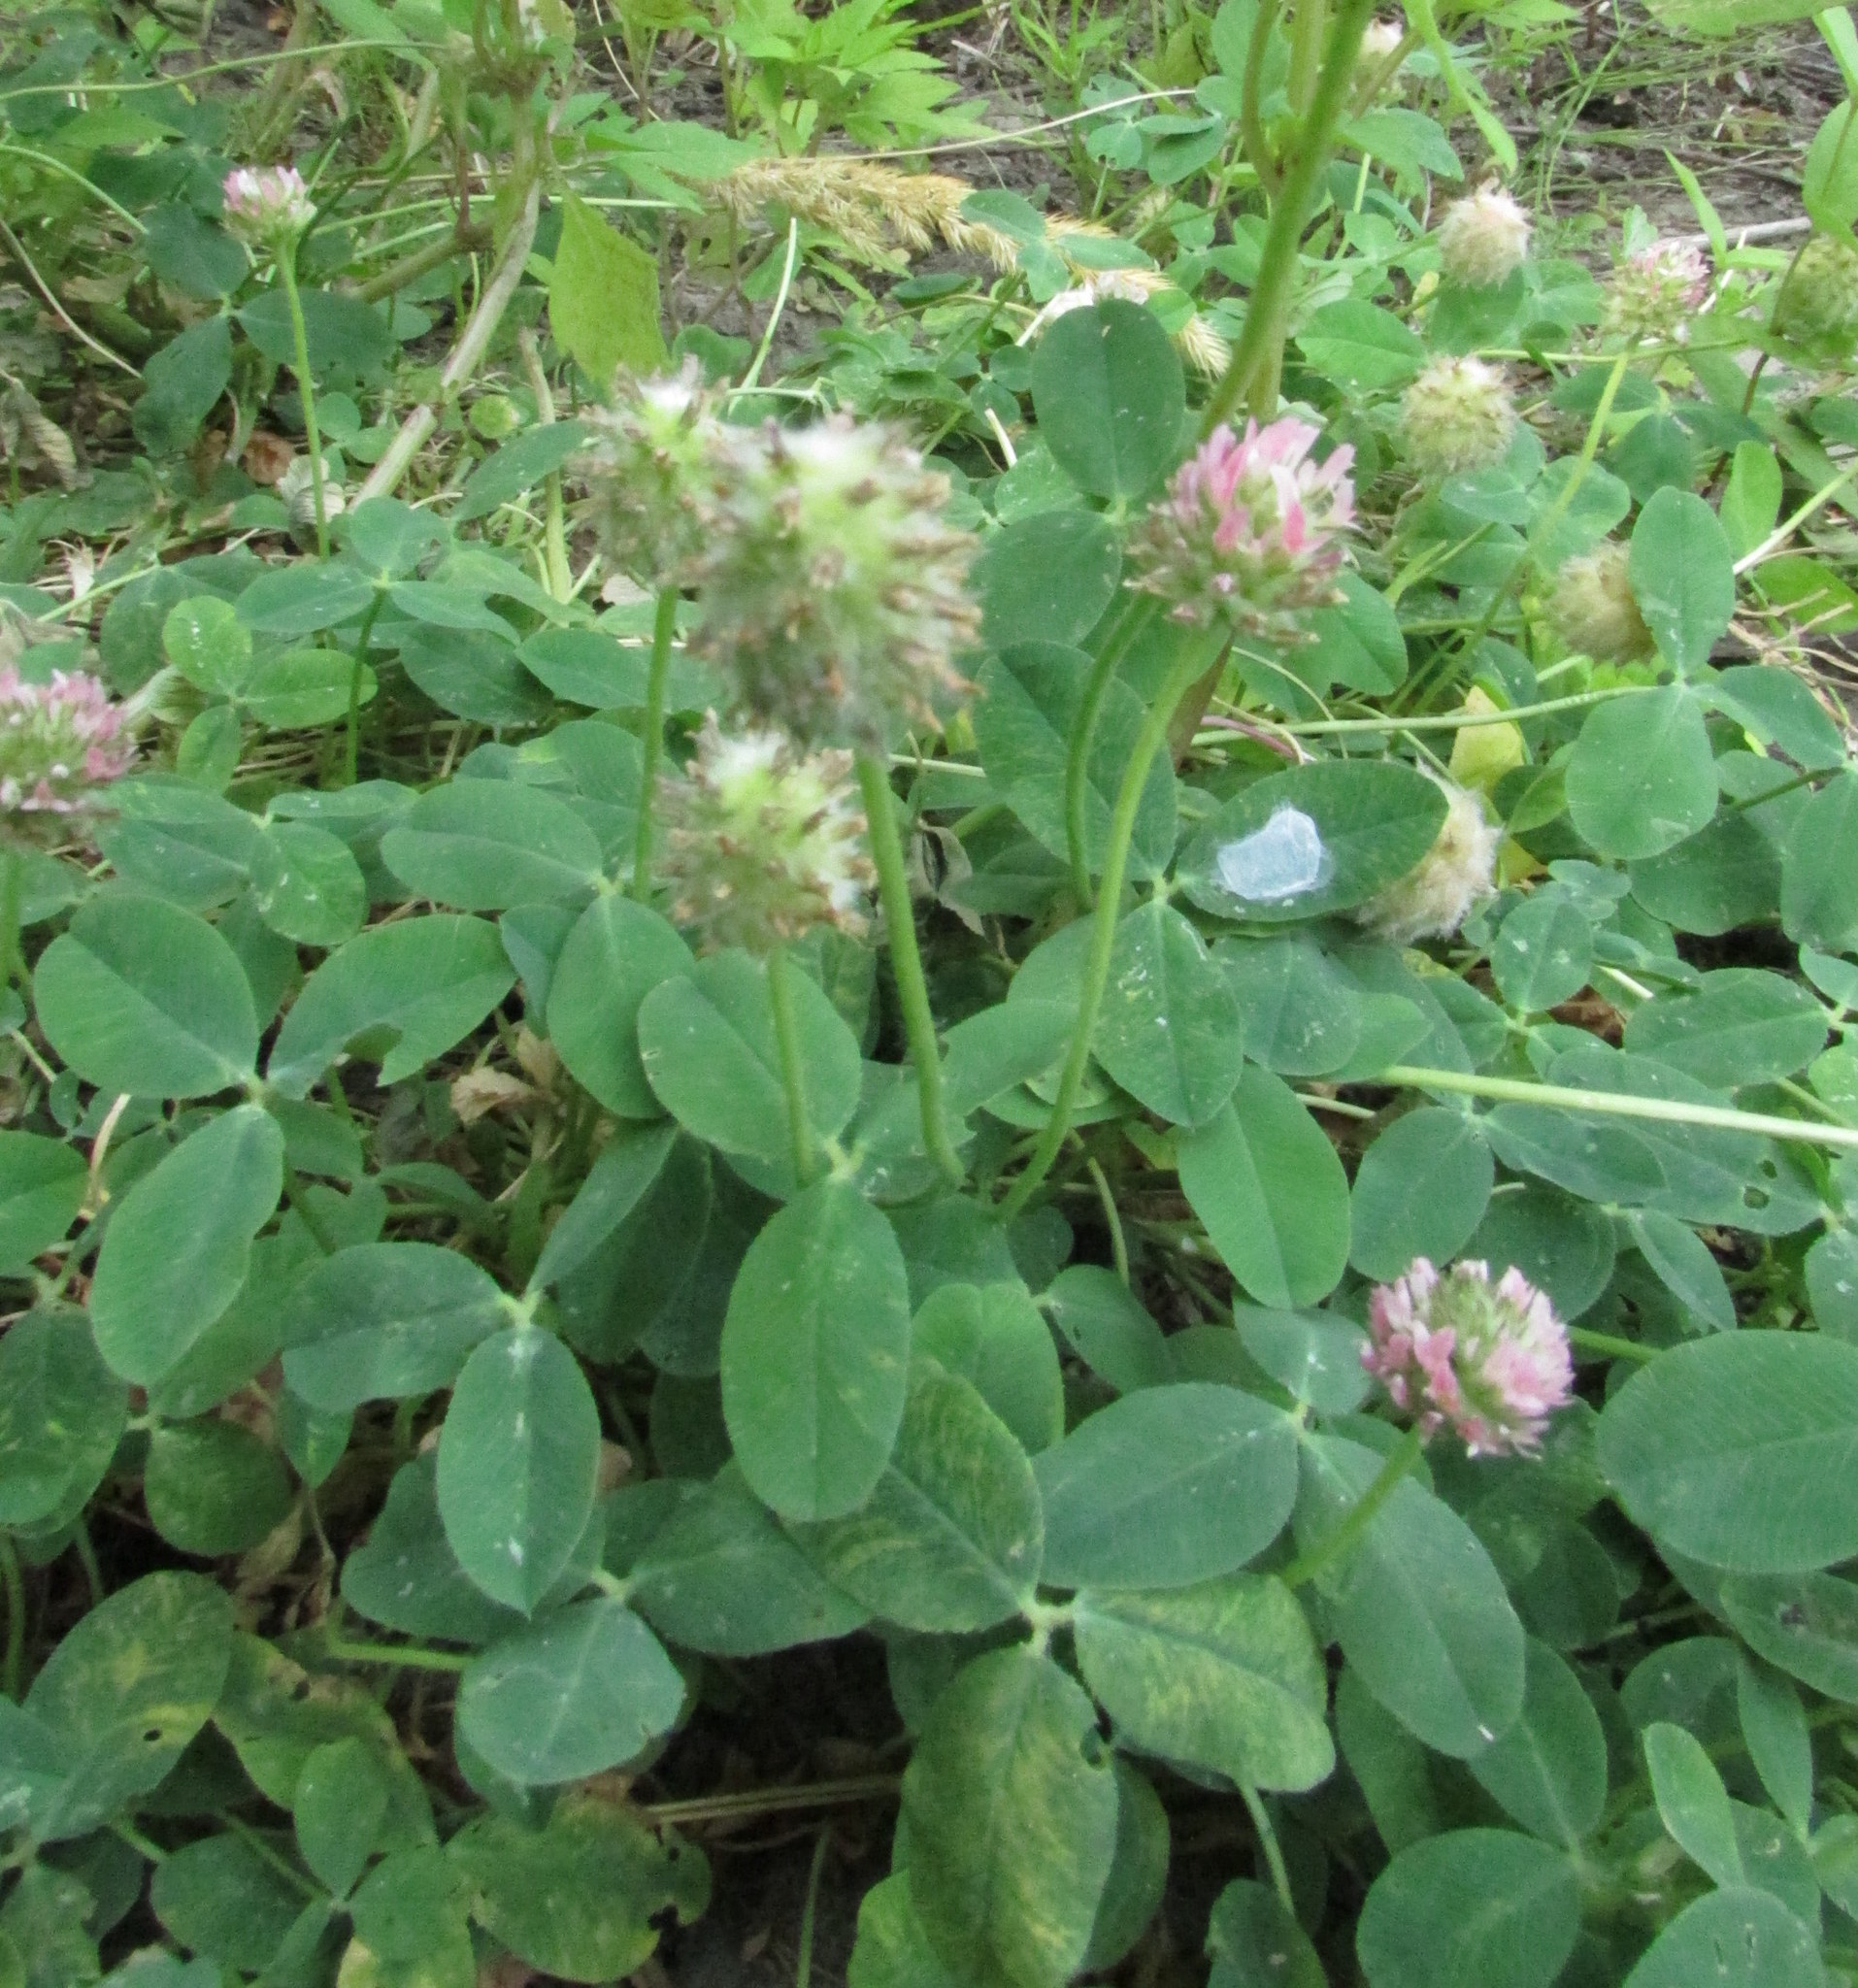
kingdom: Plantae
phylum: Tracheophyta
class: Magnoliopsida
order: Fabales
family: Fabaceae
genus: Trifolium
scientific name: Trifolium fragiferum
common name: Strawberry clover
